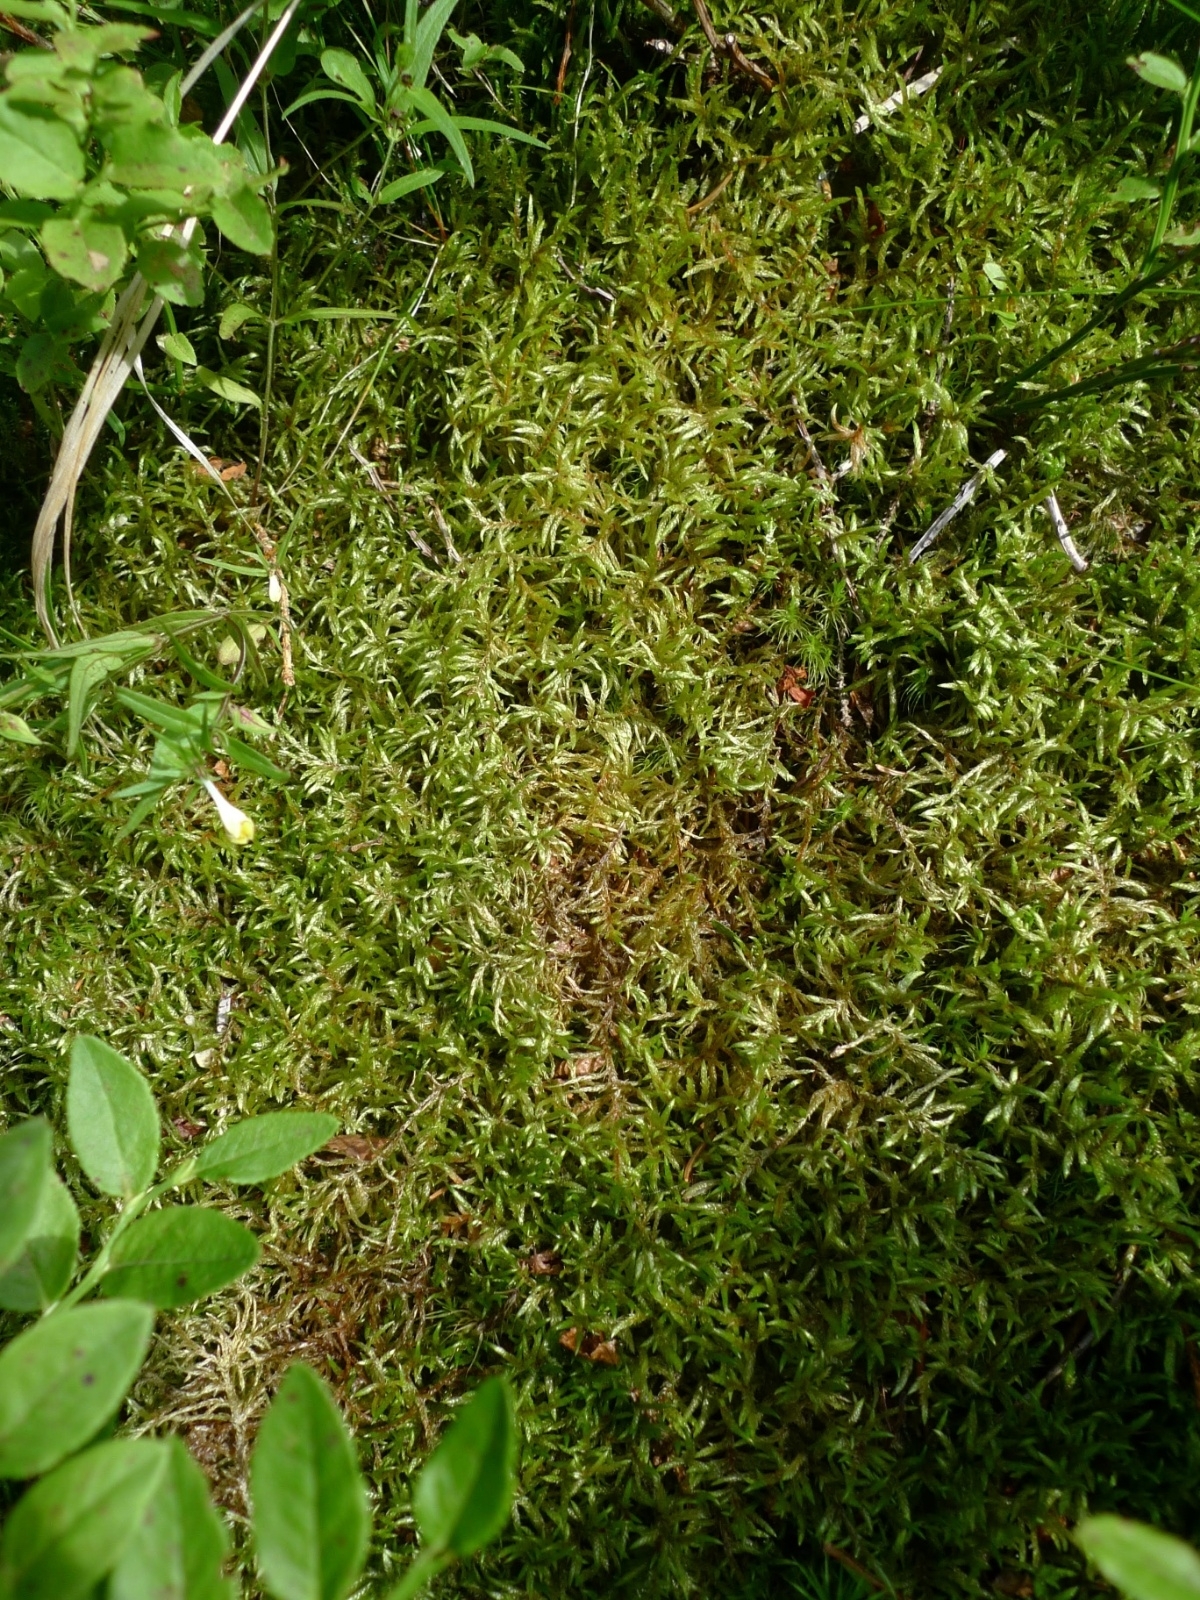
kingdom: Plantae
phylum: Bryophyta
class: Bryopsida
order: Hypnales
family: Hylocomiaceae
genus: Pleurozium
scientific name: Pleurozium schreberi
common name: Red-stemmed feather moss
